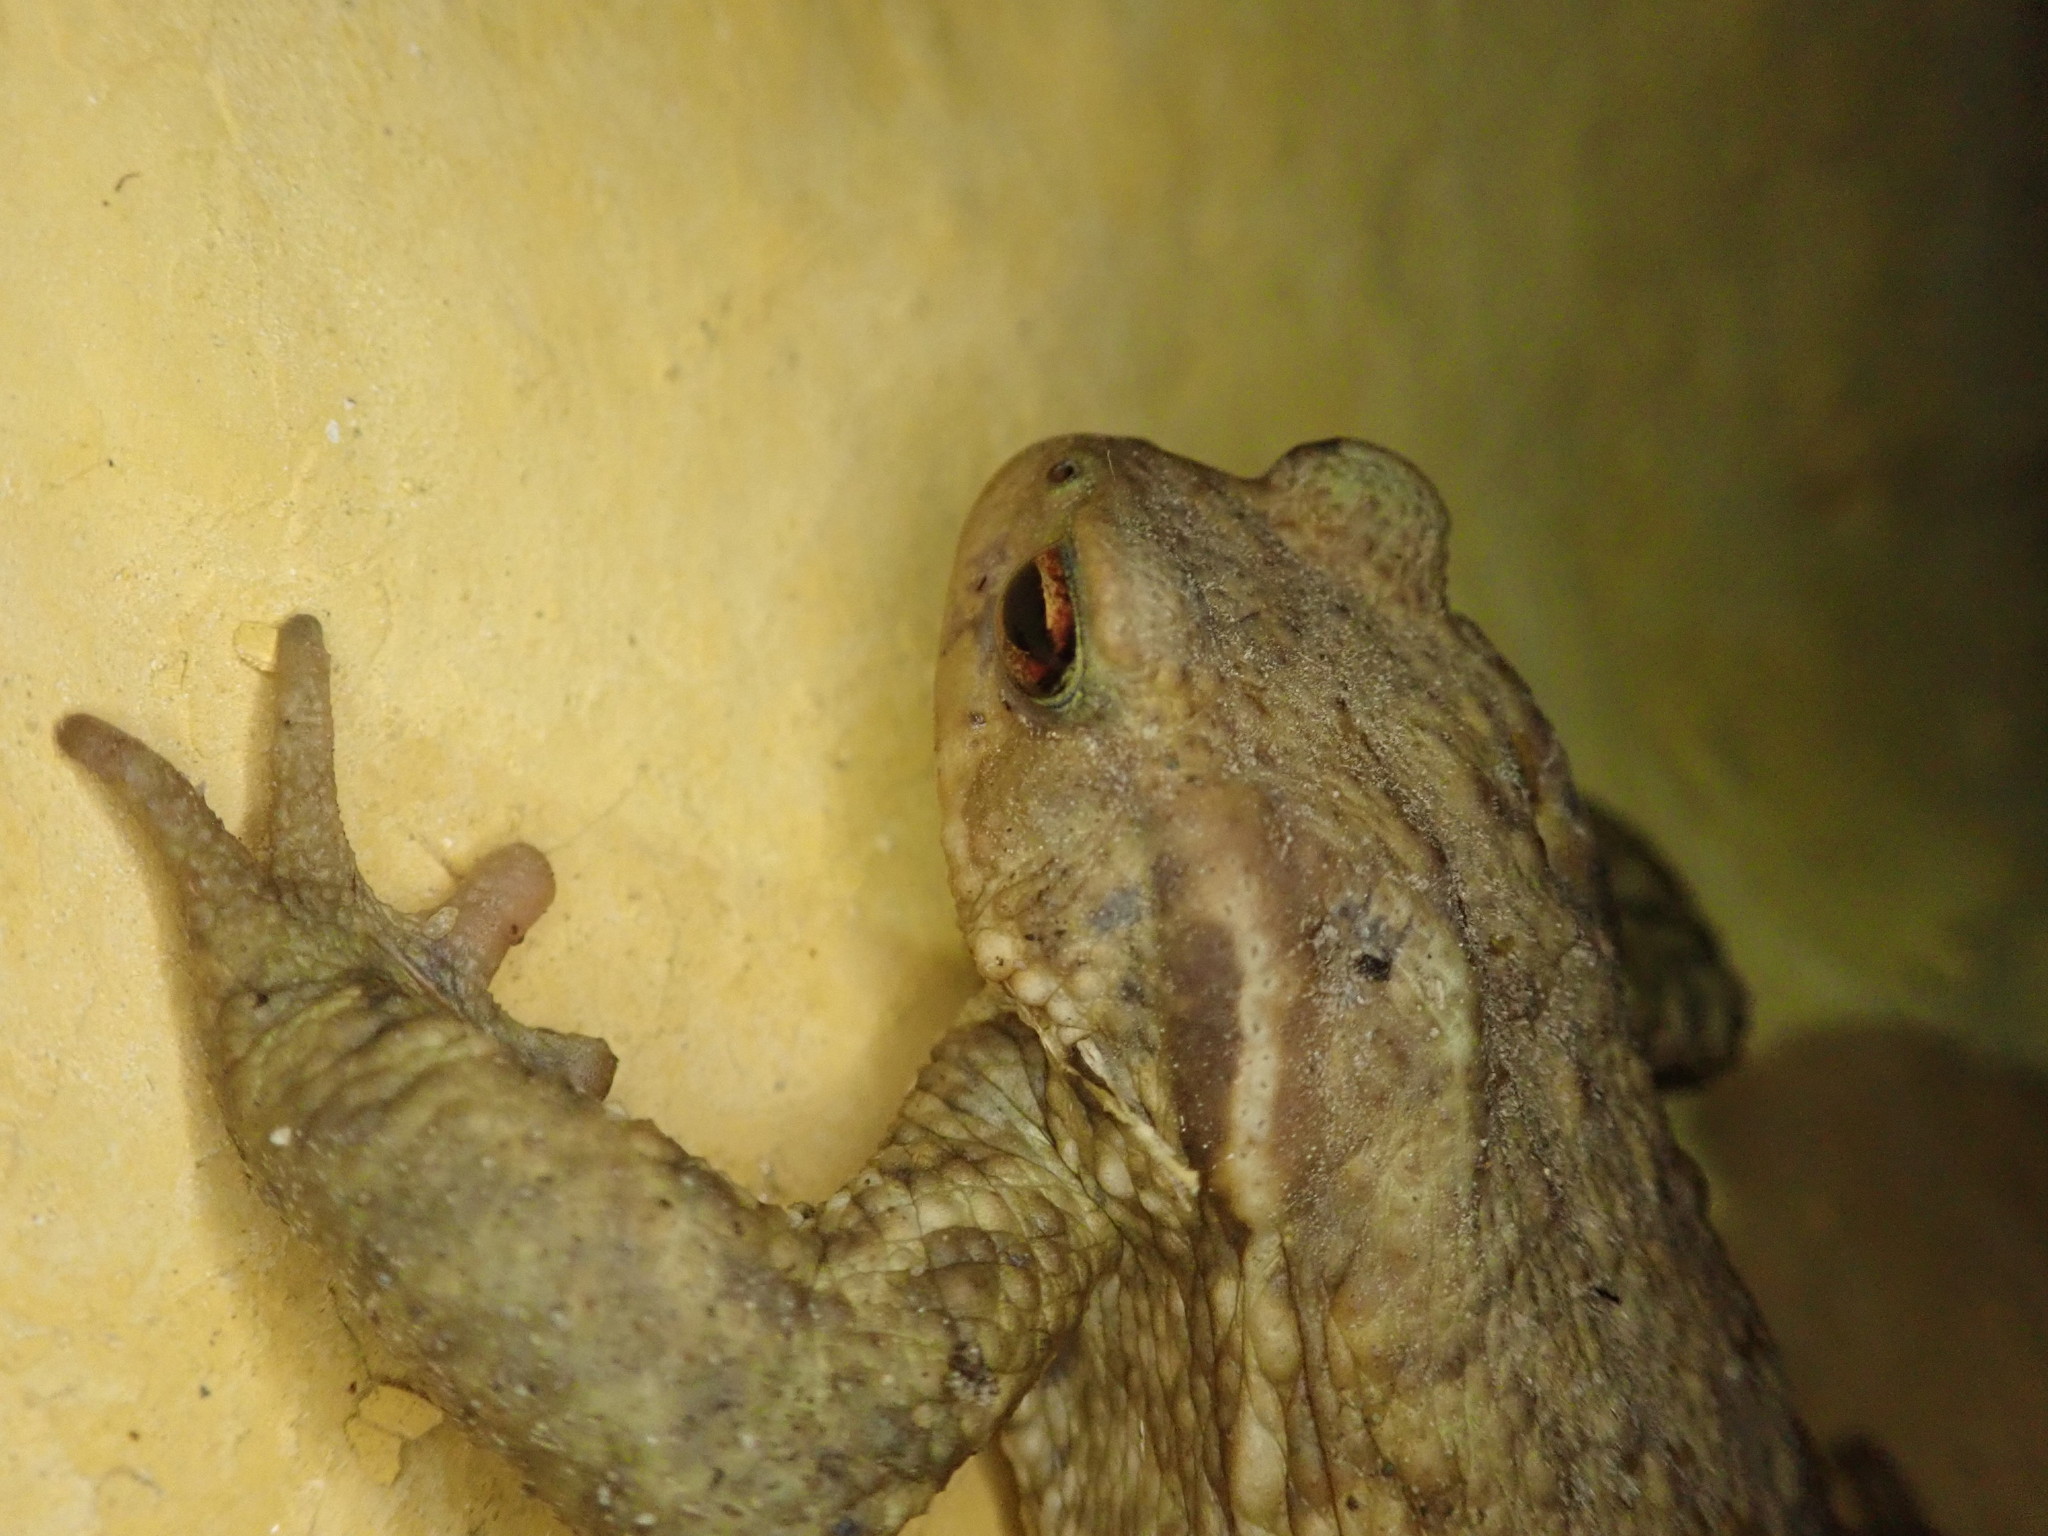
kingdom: Animalia
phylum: Chordata
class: Amphibia
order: Anura
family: Bufonidae
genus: Bufo
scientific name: Bufo spinosus
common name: Western common toad
